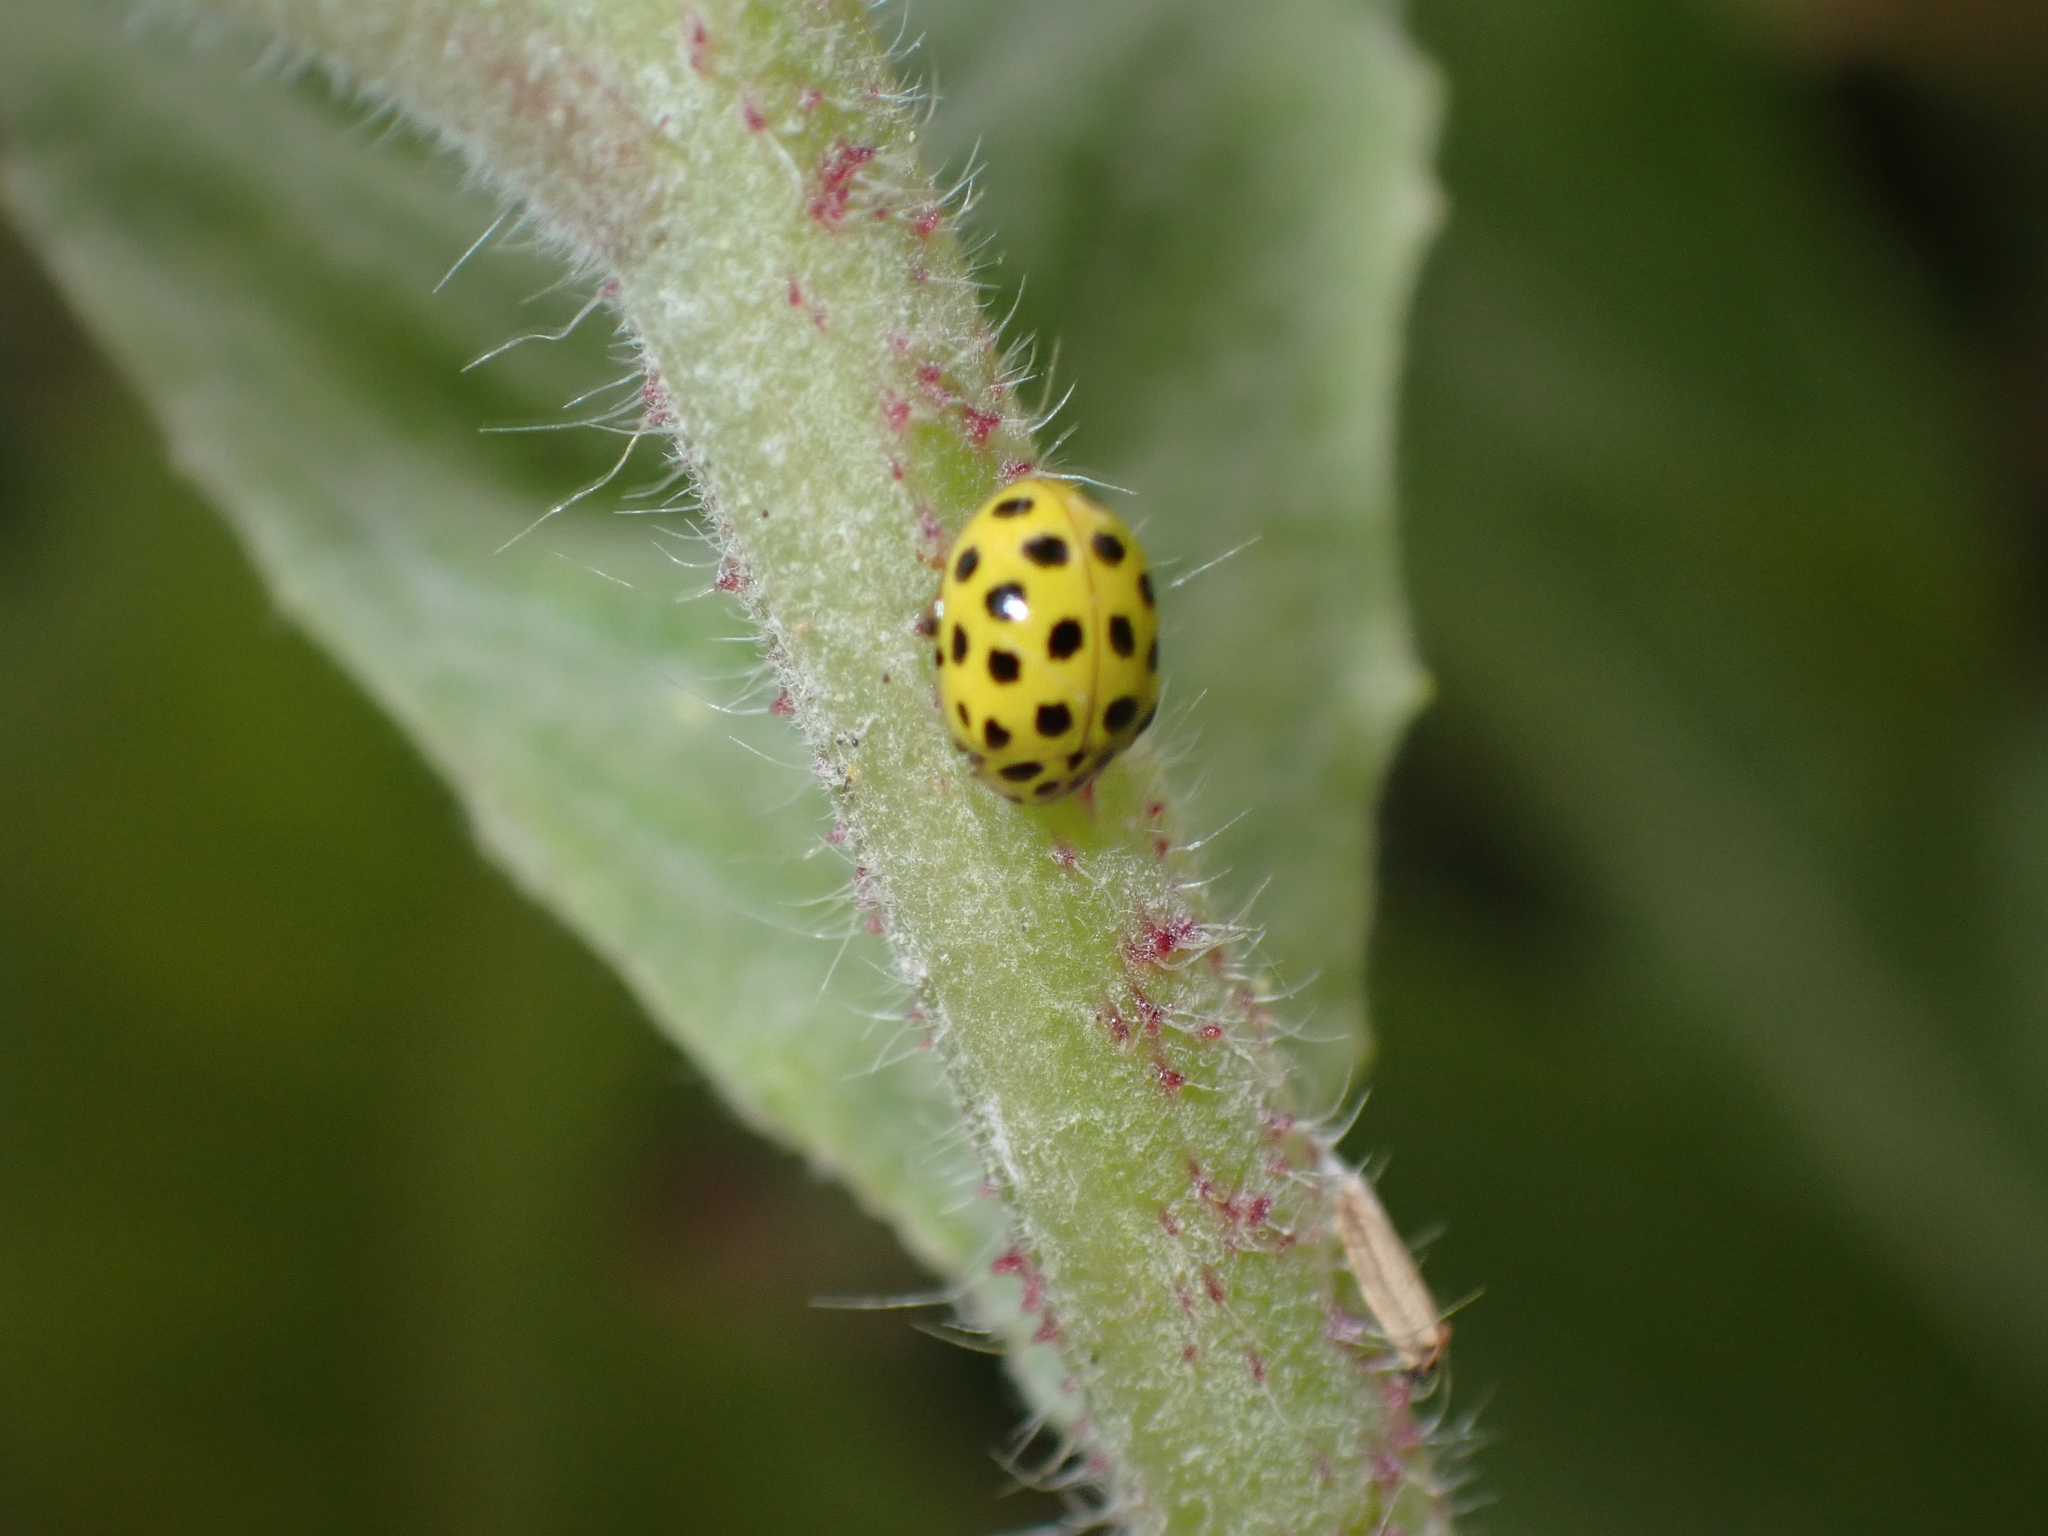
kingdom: Animalia
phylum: Arthropoda
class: Insecta
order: Coleoptera
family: Coccinellidae
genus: Psyllobora
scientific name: Psyllobora vigintiduopunctata
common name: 22-spot ladybird
